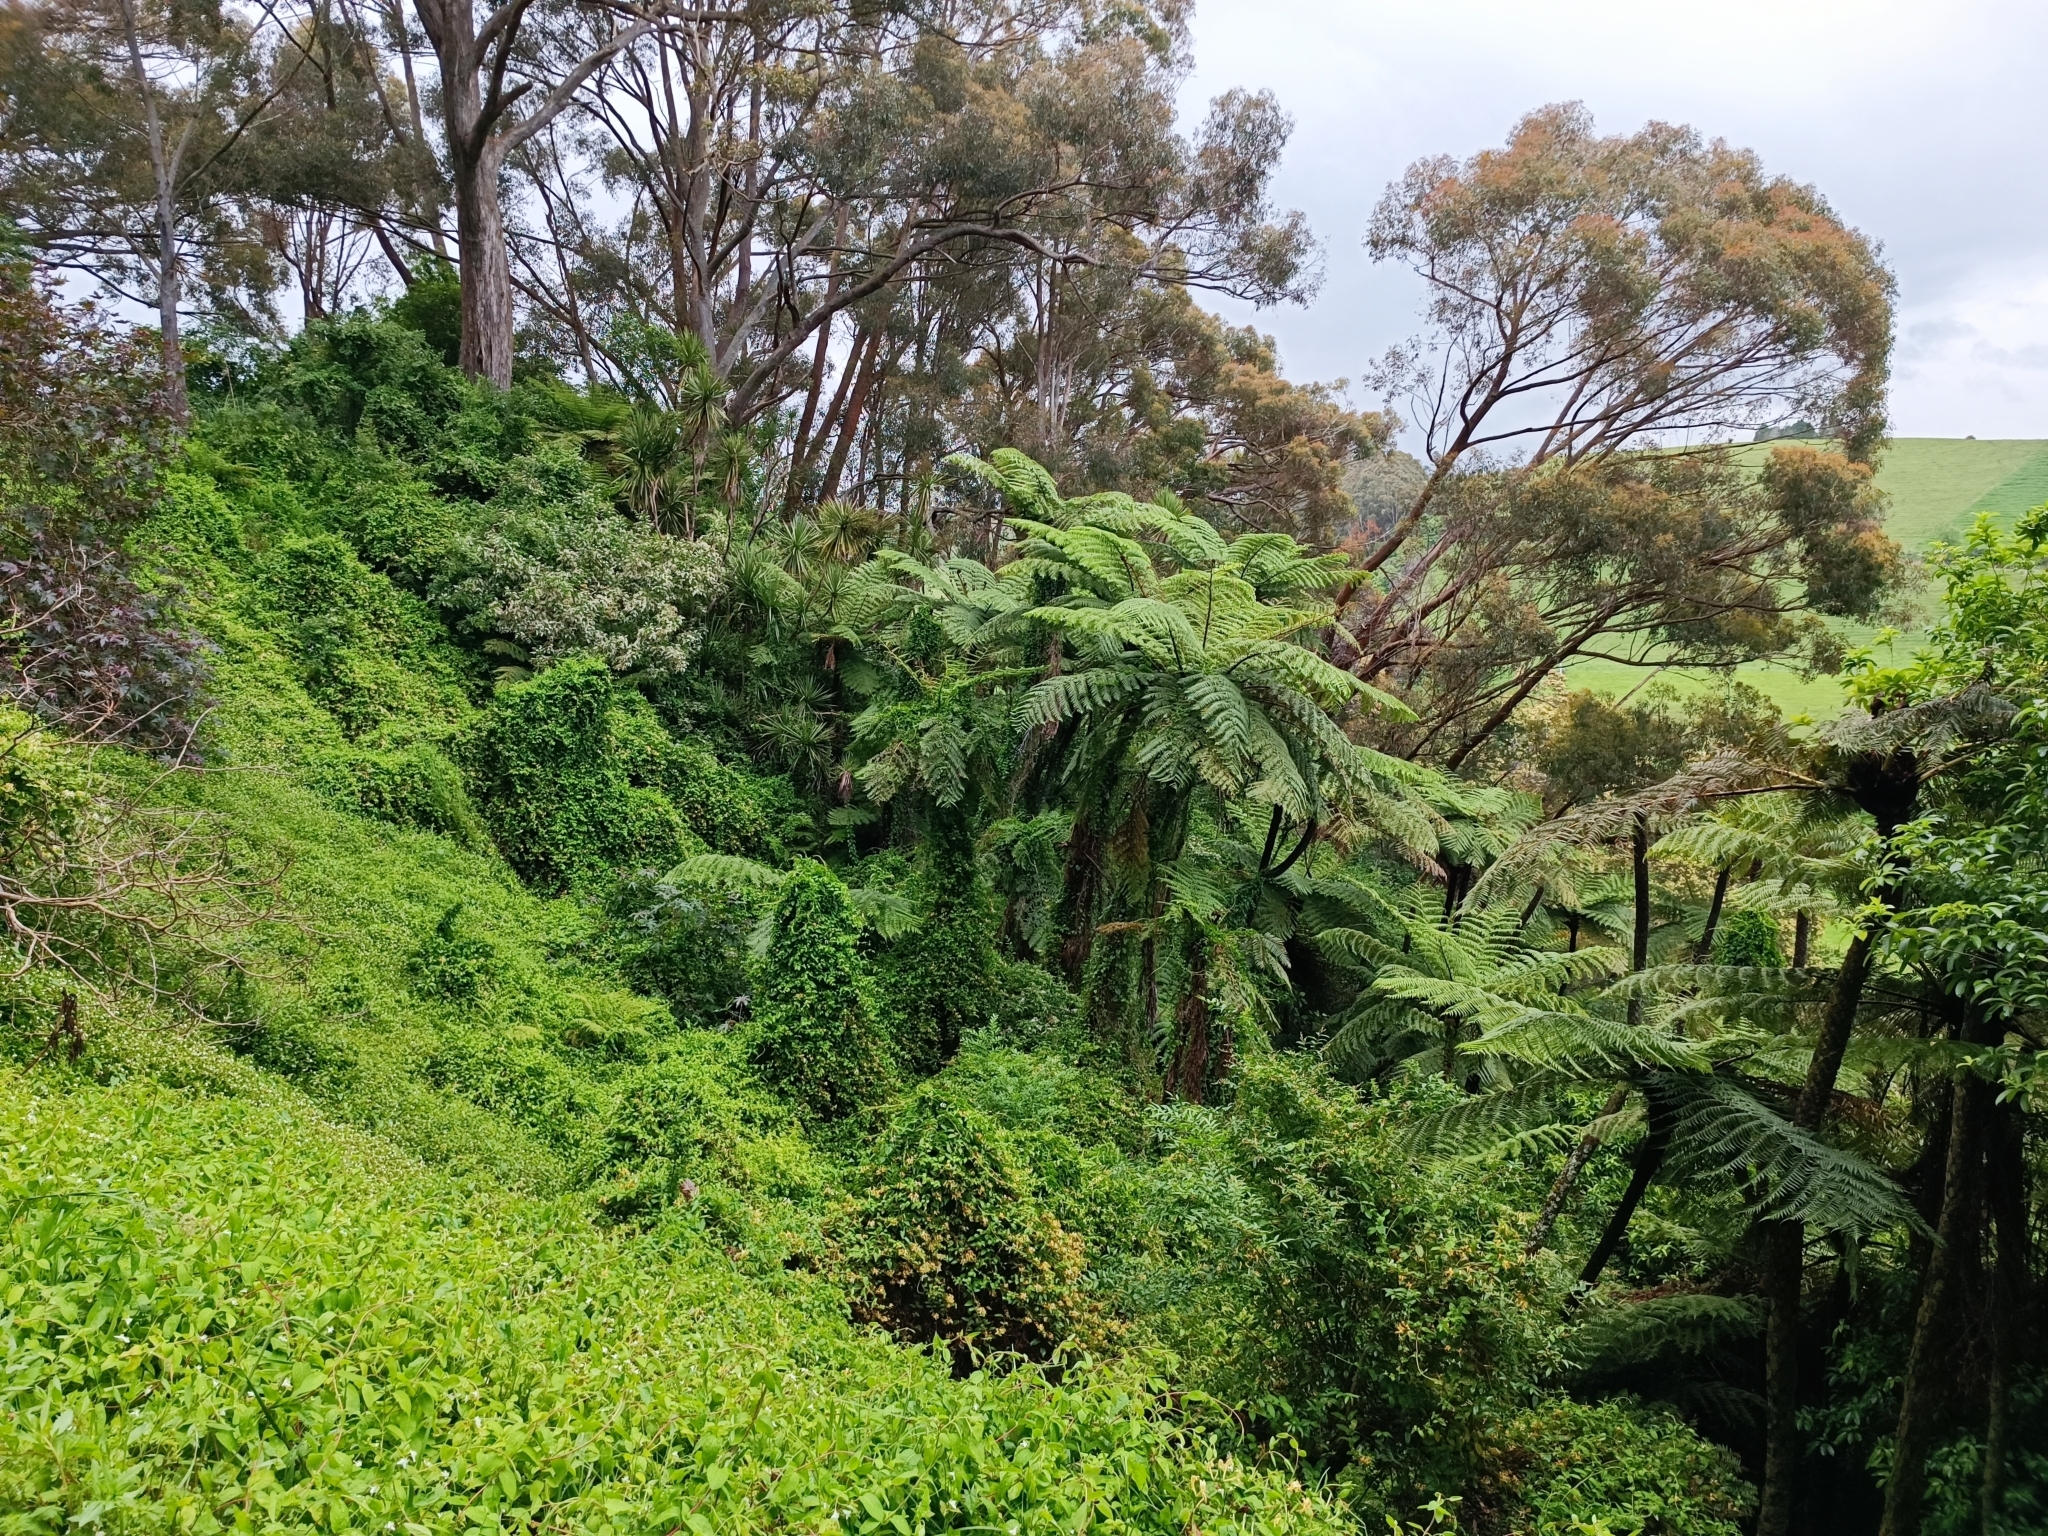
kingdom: Plantae
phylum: Tracheophyta
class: Magnoliopsida
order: Caryophyllales
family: Basellaceae
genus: Anredera
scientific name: Anredera cordifolia
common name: Heartleaf madeiravine
